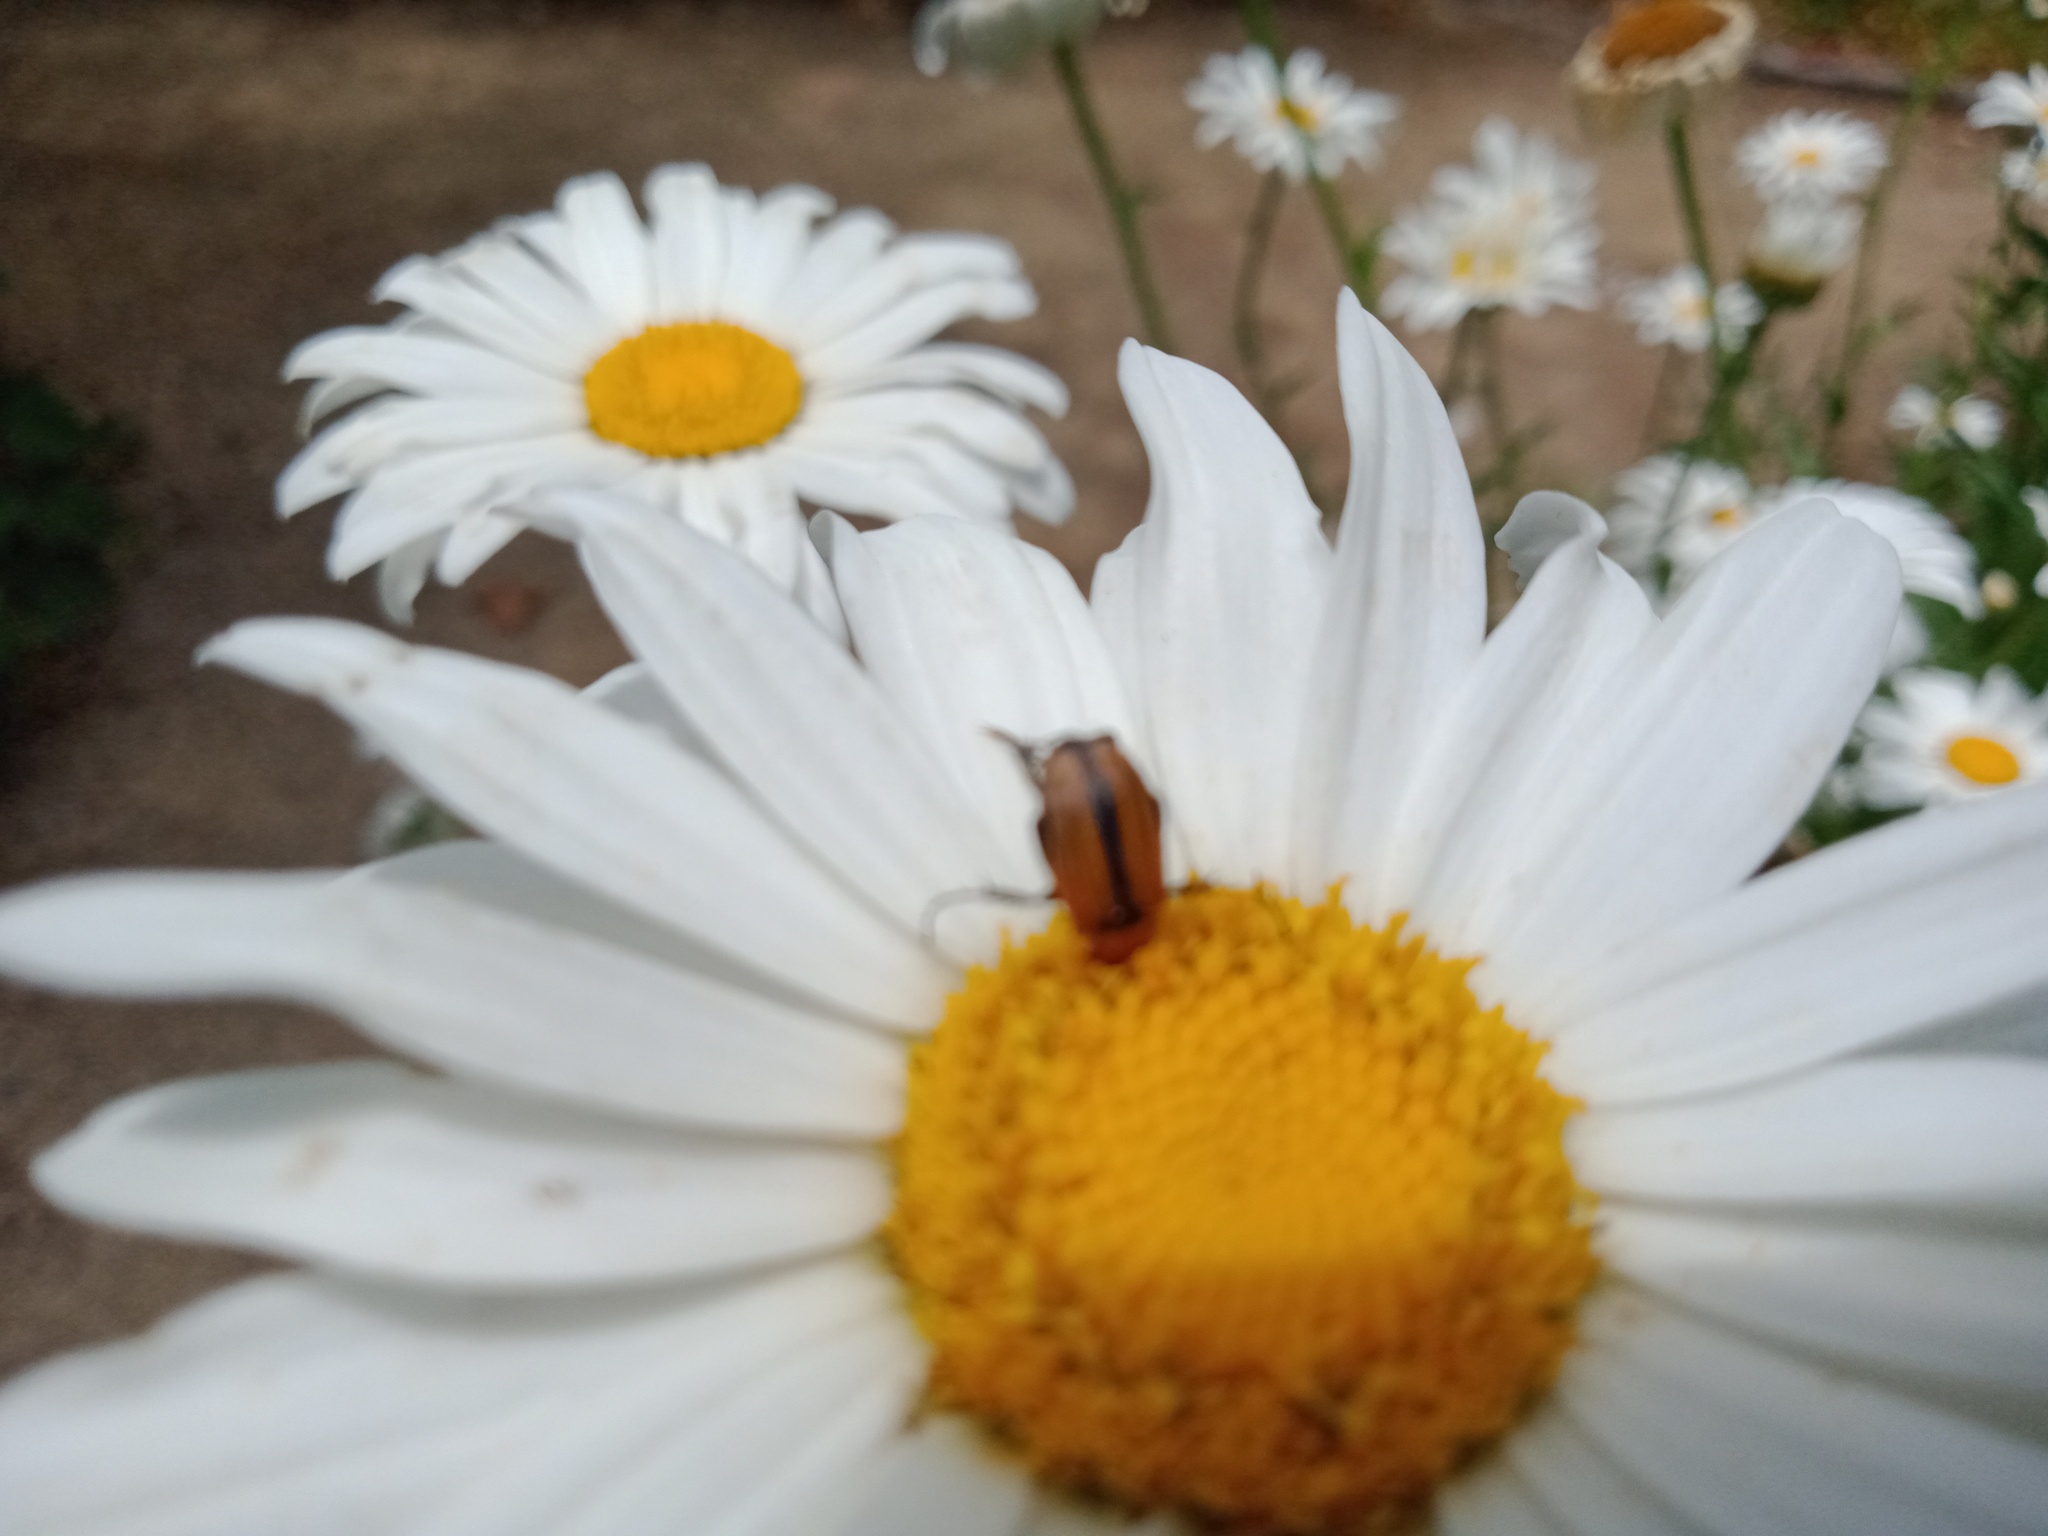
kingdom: Animalia
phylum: Arthropoda
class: Insecta
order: Coleoptera
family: Scarabaeidae
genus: Phyllotocus
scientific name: Phyllotocus scutellaris
